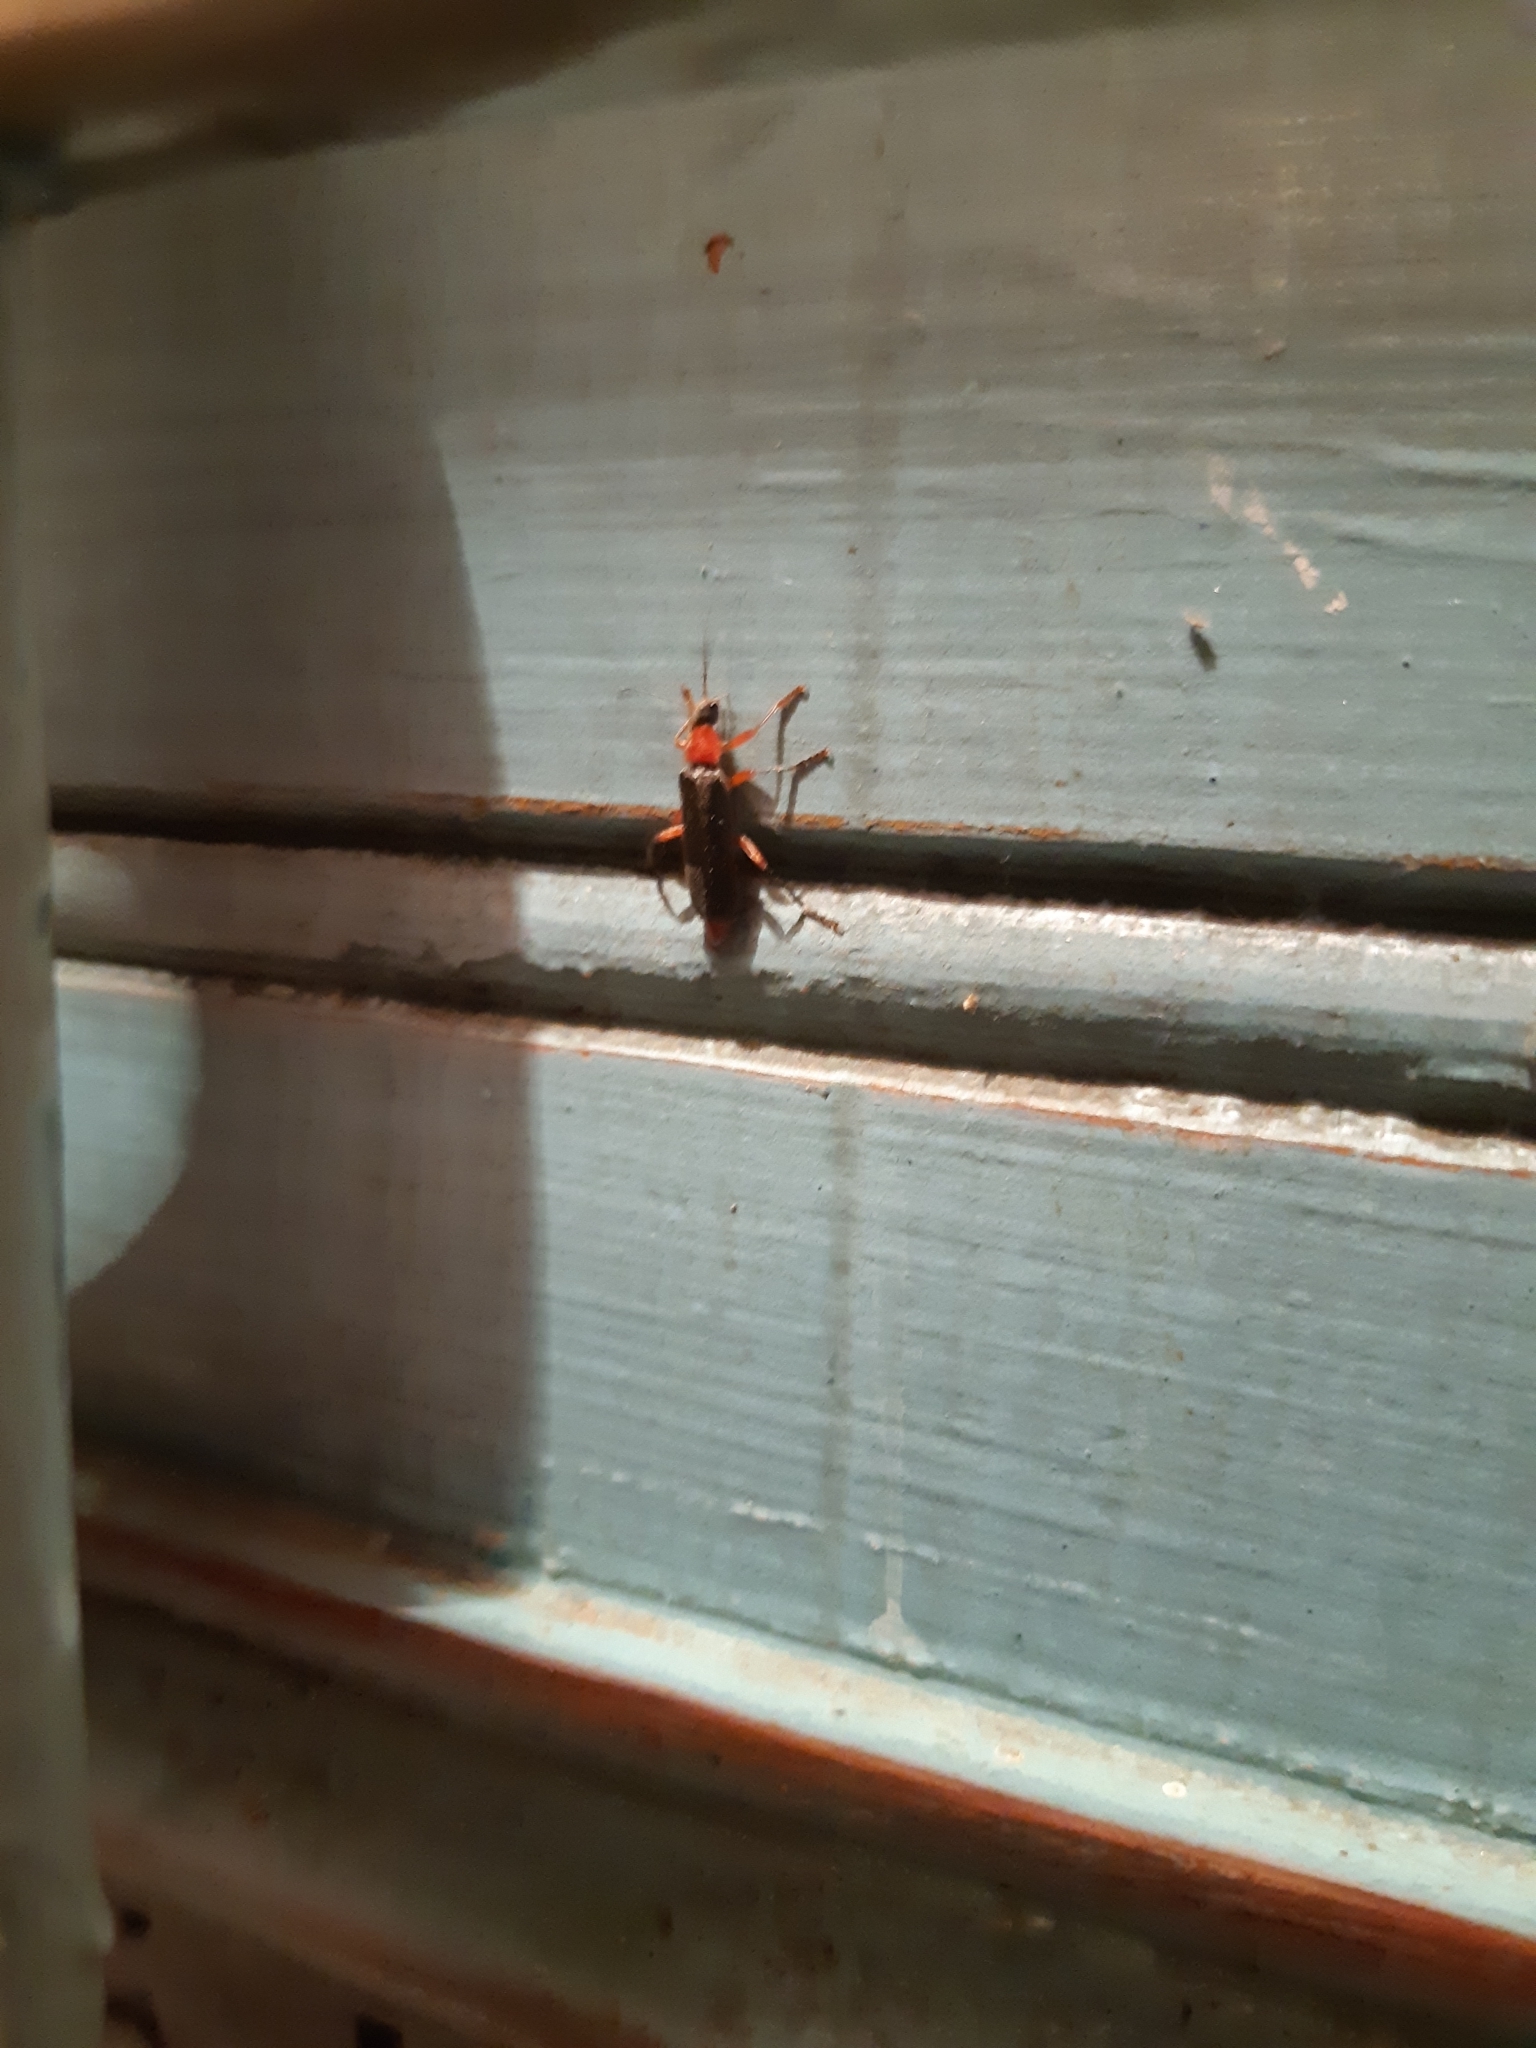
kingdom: Animalia
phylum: Arthropoda
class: Insecta
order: Coleoptera
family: Cantharidae
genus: Cantharis
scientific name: Cantharis pellucida
